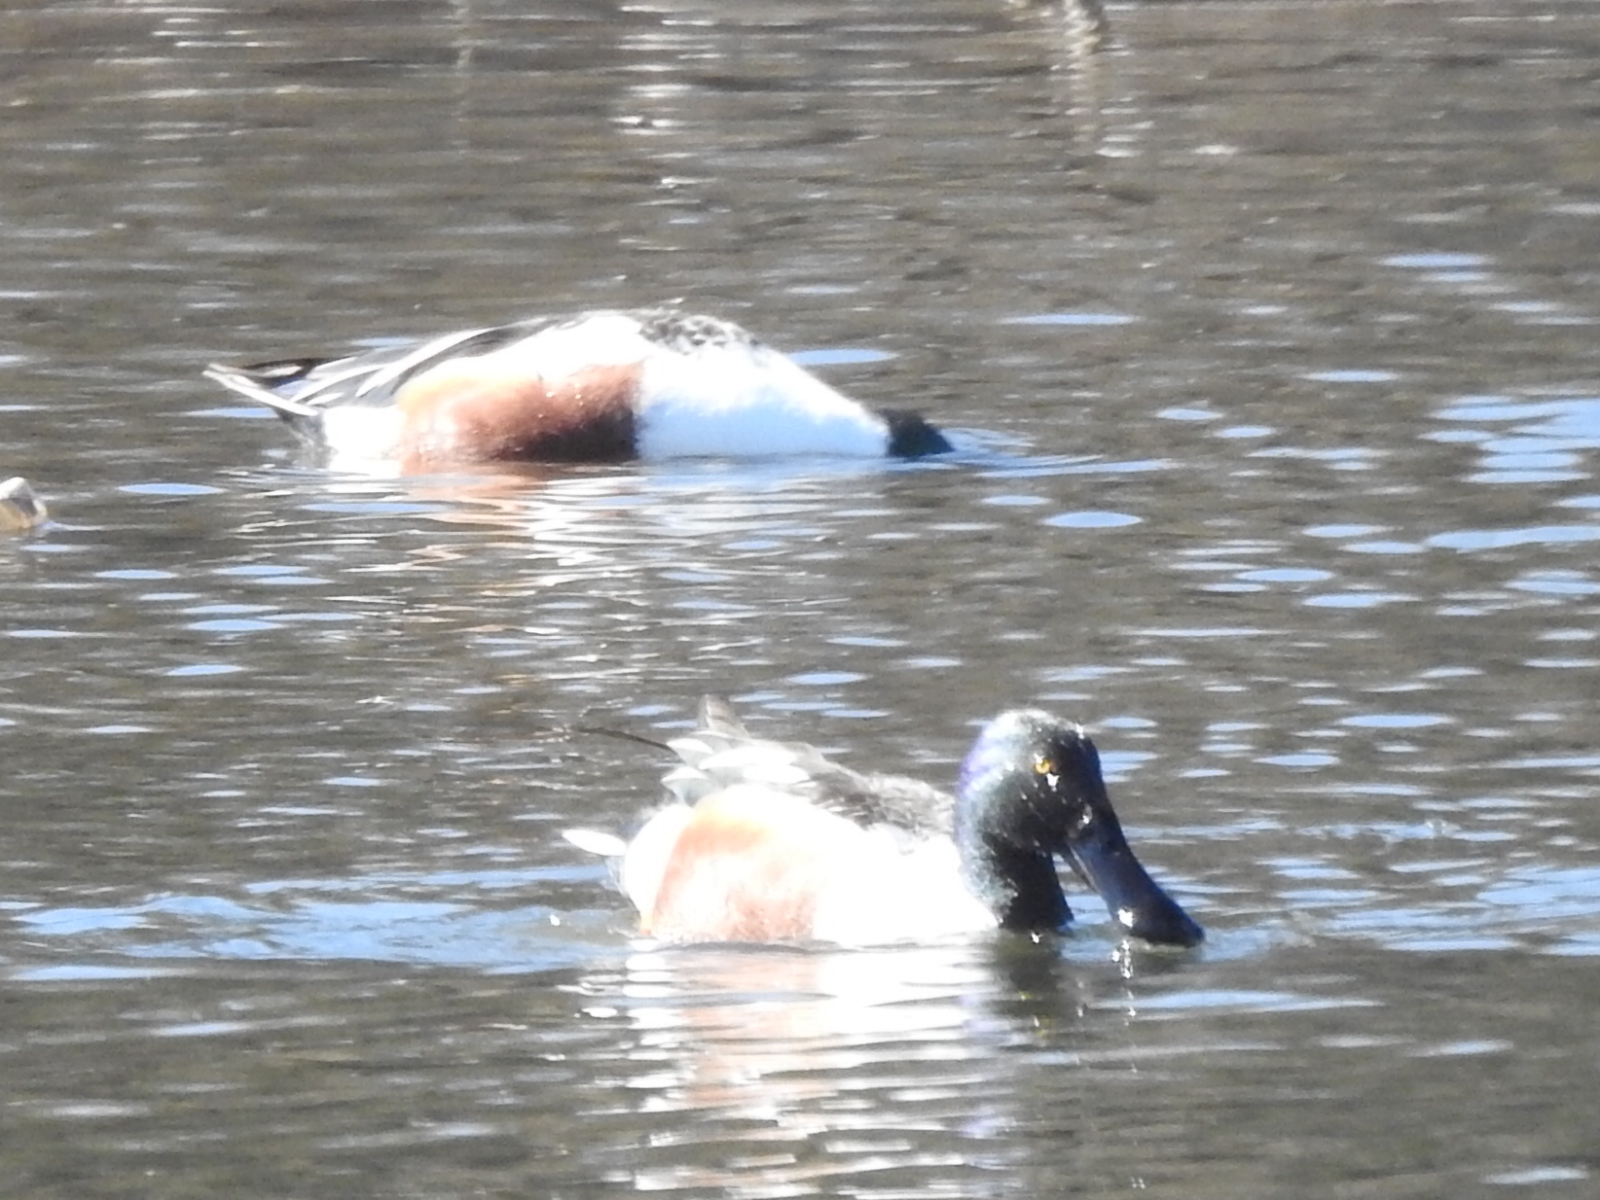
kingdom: Animalia
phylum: Chordata
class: Aves
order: Anseriformes
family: Anatidae
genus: Spatula
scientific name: Spatula clypeata
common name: Northern shoveler
